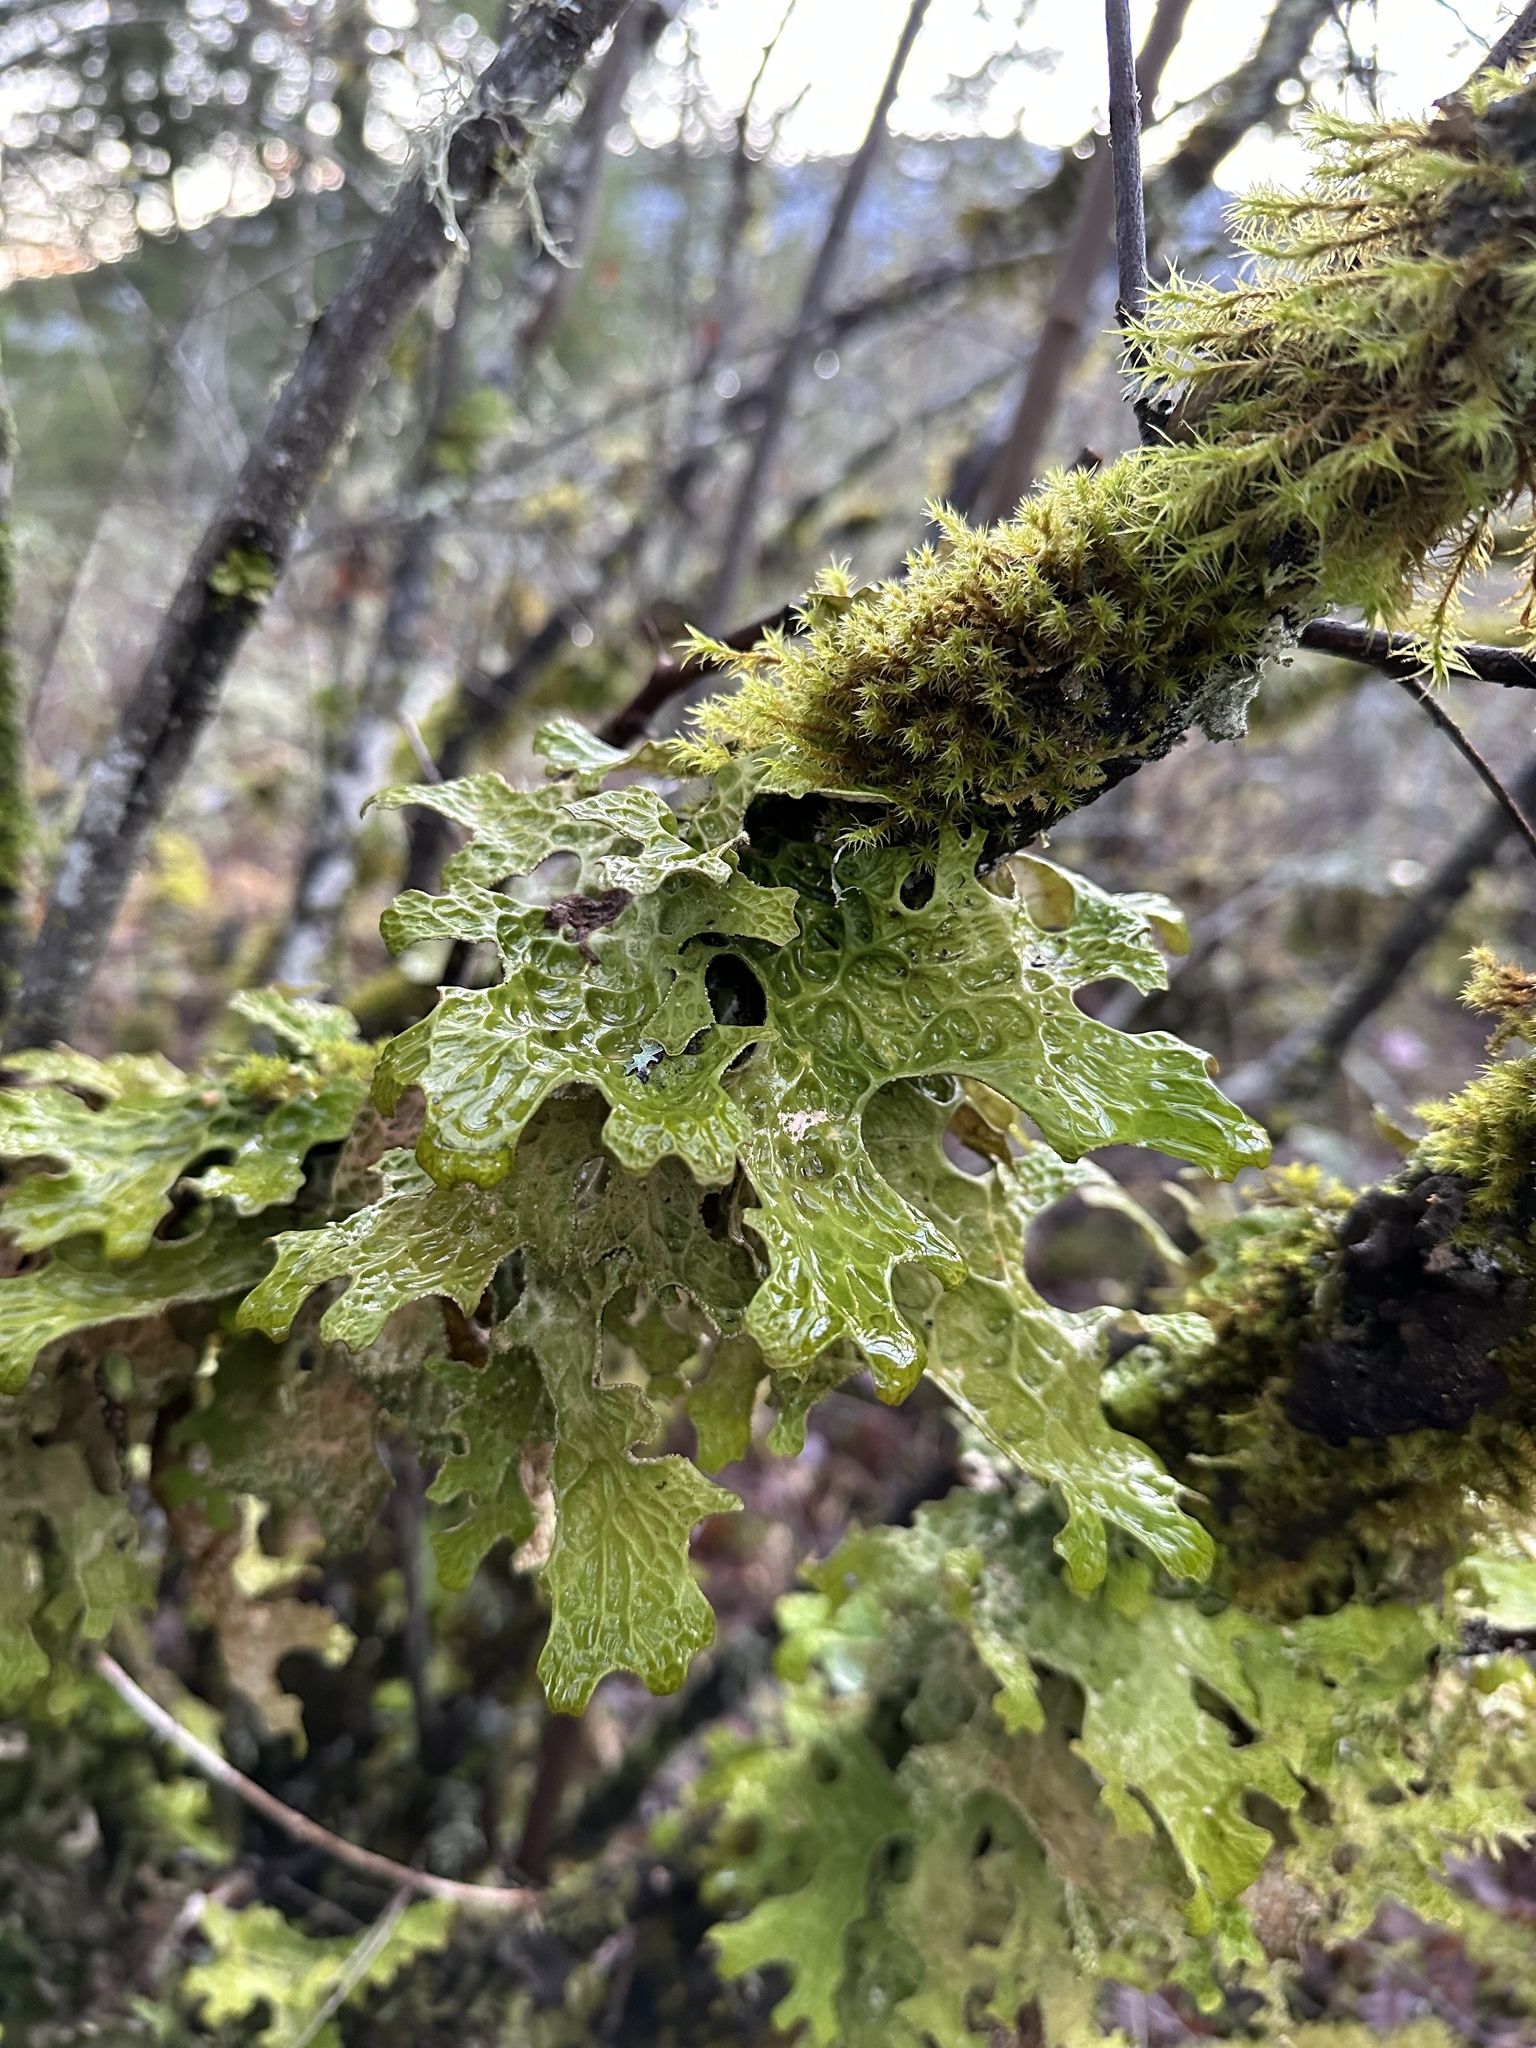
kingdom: Fungi
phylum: Ascomycota
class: Lecanoromycetes
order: Peltigerales
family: Lobariaceae
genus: Lobaria
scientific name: Lobaria pulmonaria
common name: Lungwort
